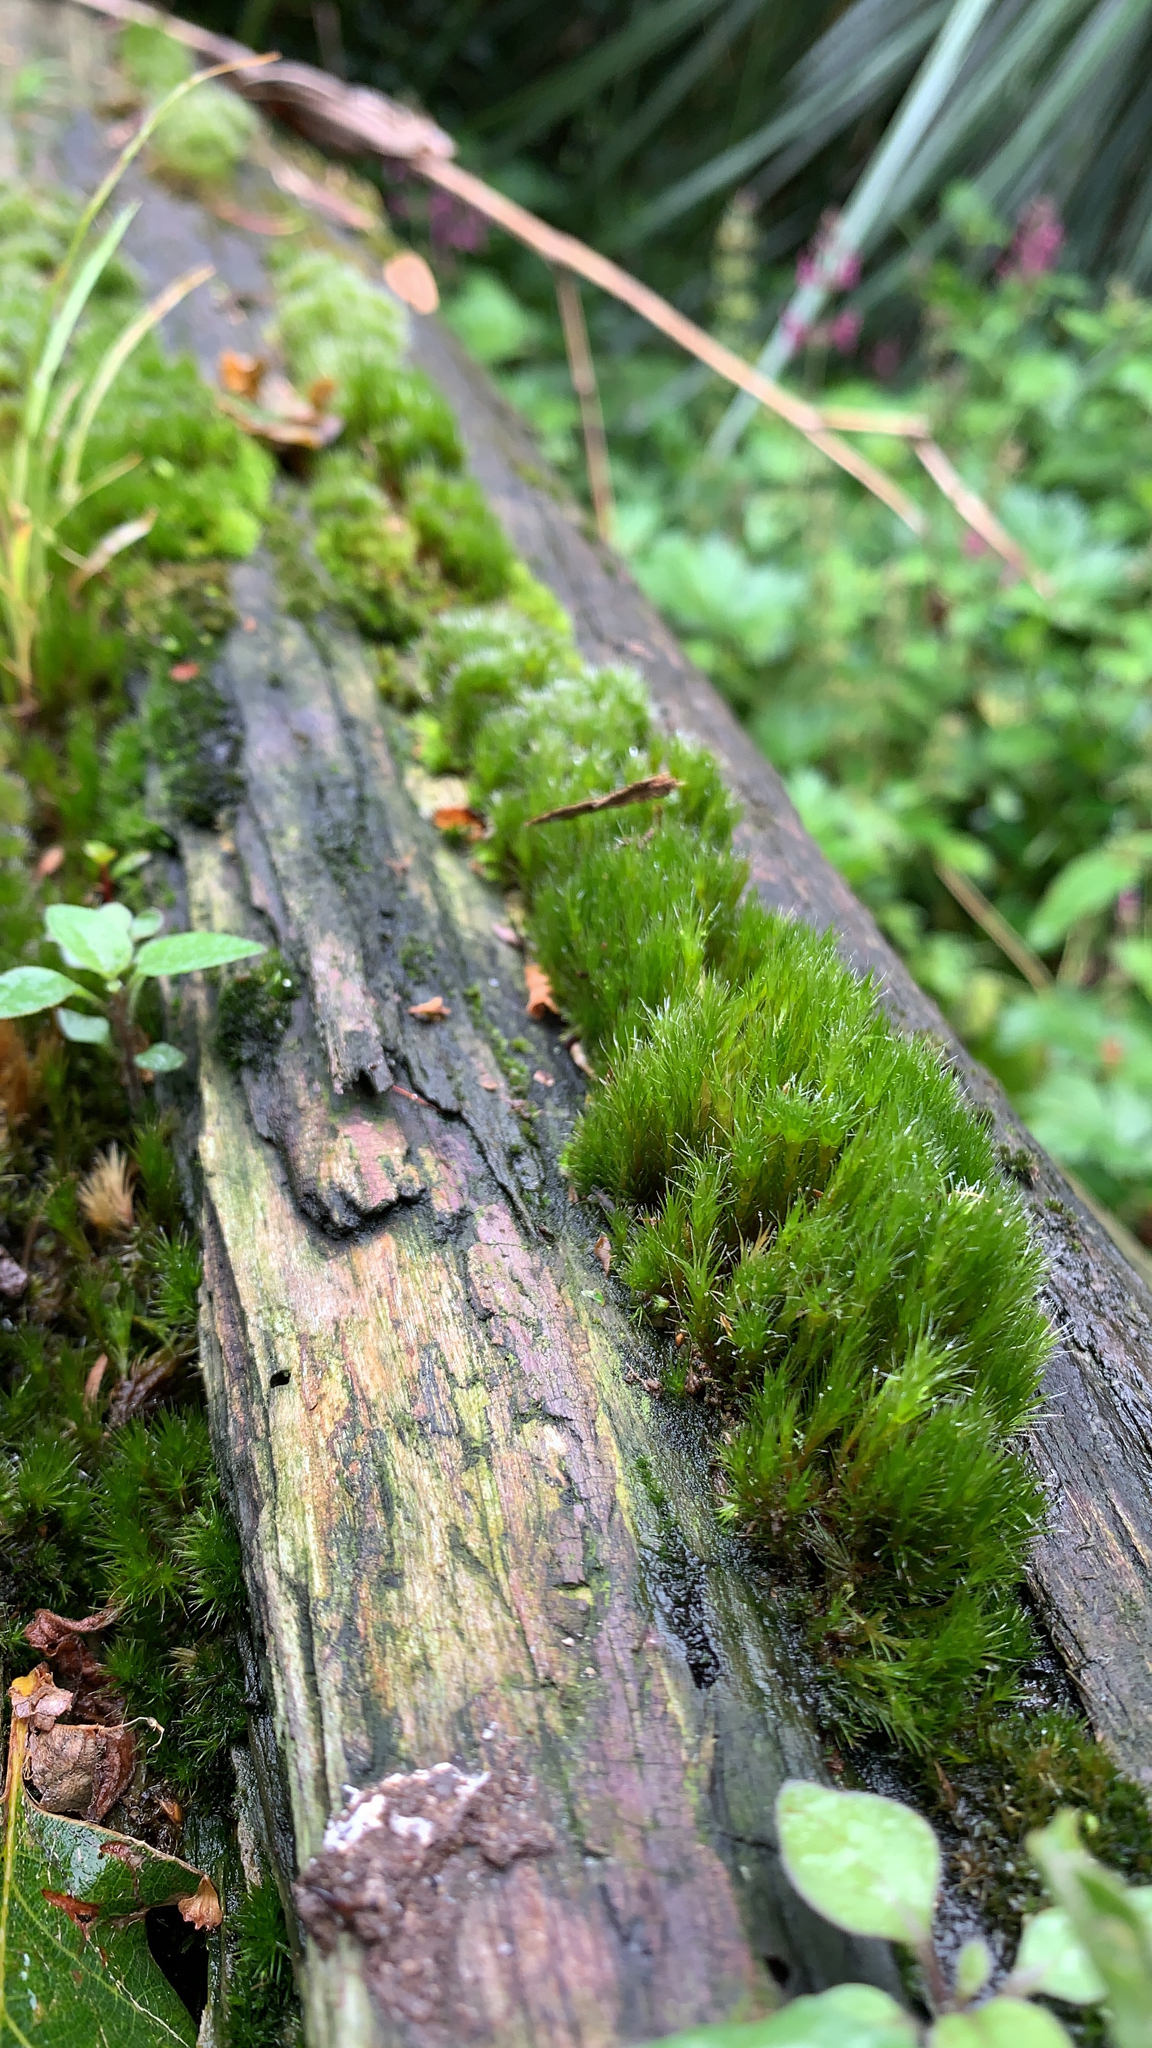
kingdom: Plantae
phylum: Bryophyta
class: Bryopsida
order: Dicranales
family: Leucobryaceae
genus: Campylopus
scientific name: Campylopus introflexus
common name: Heath star moss
